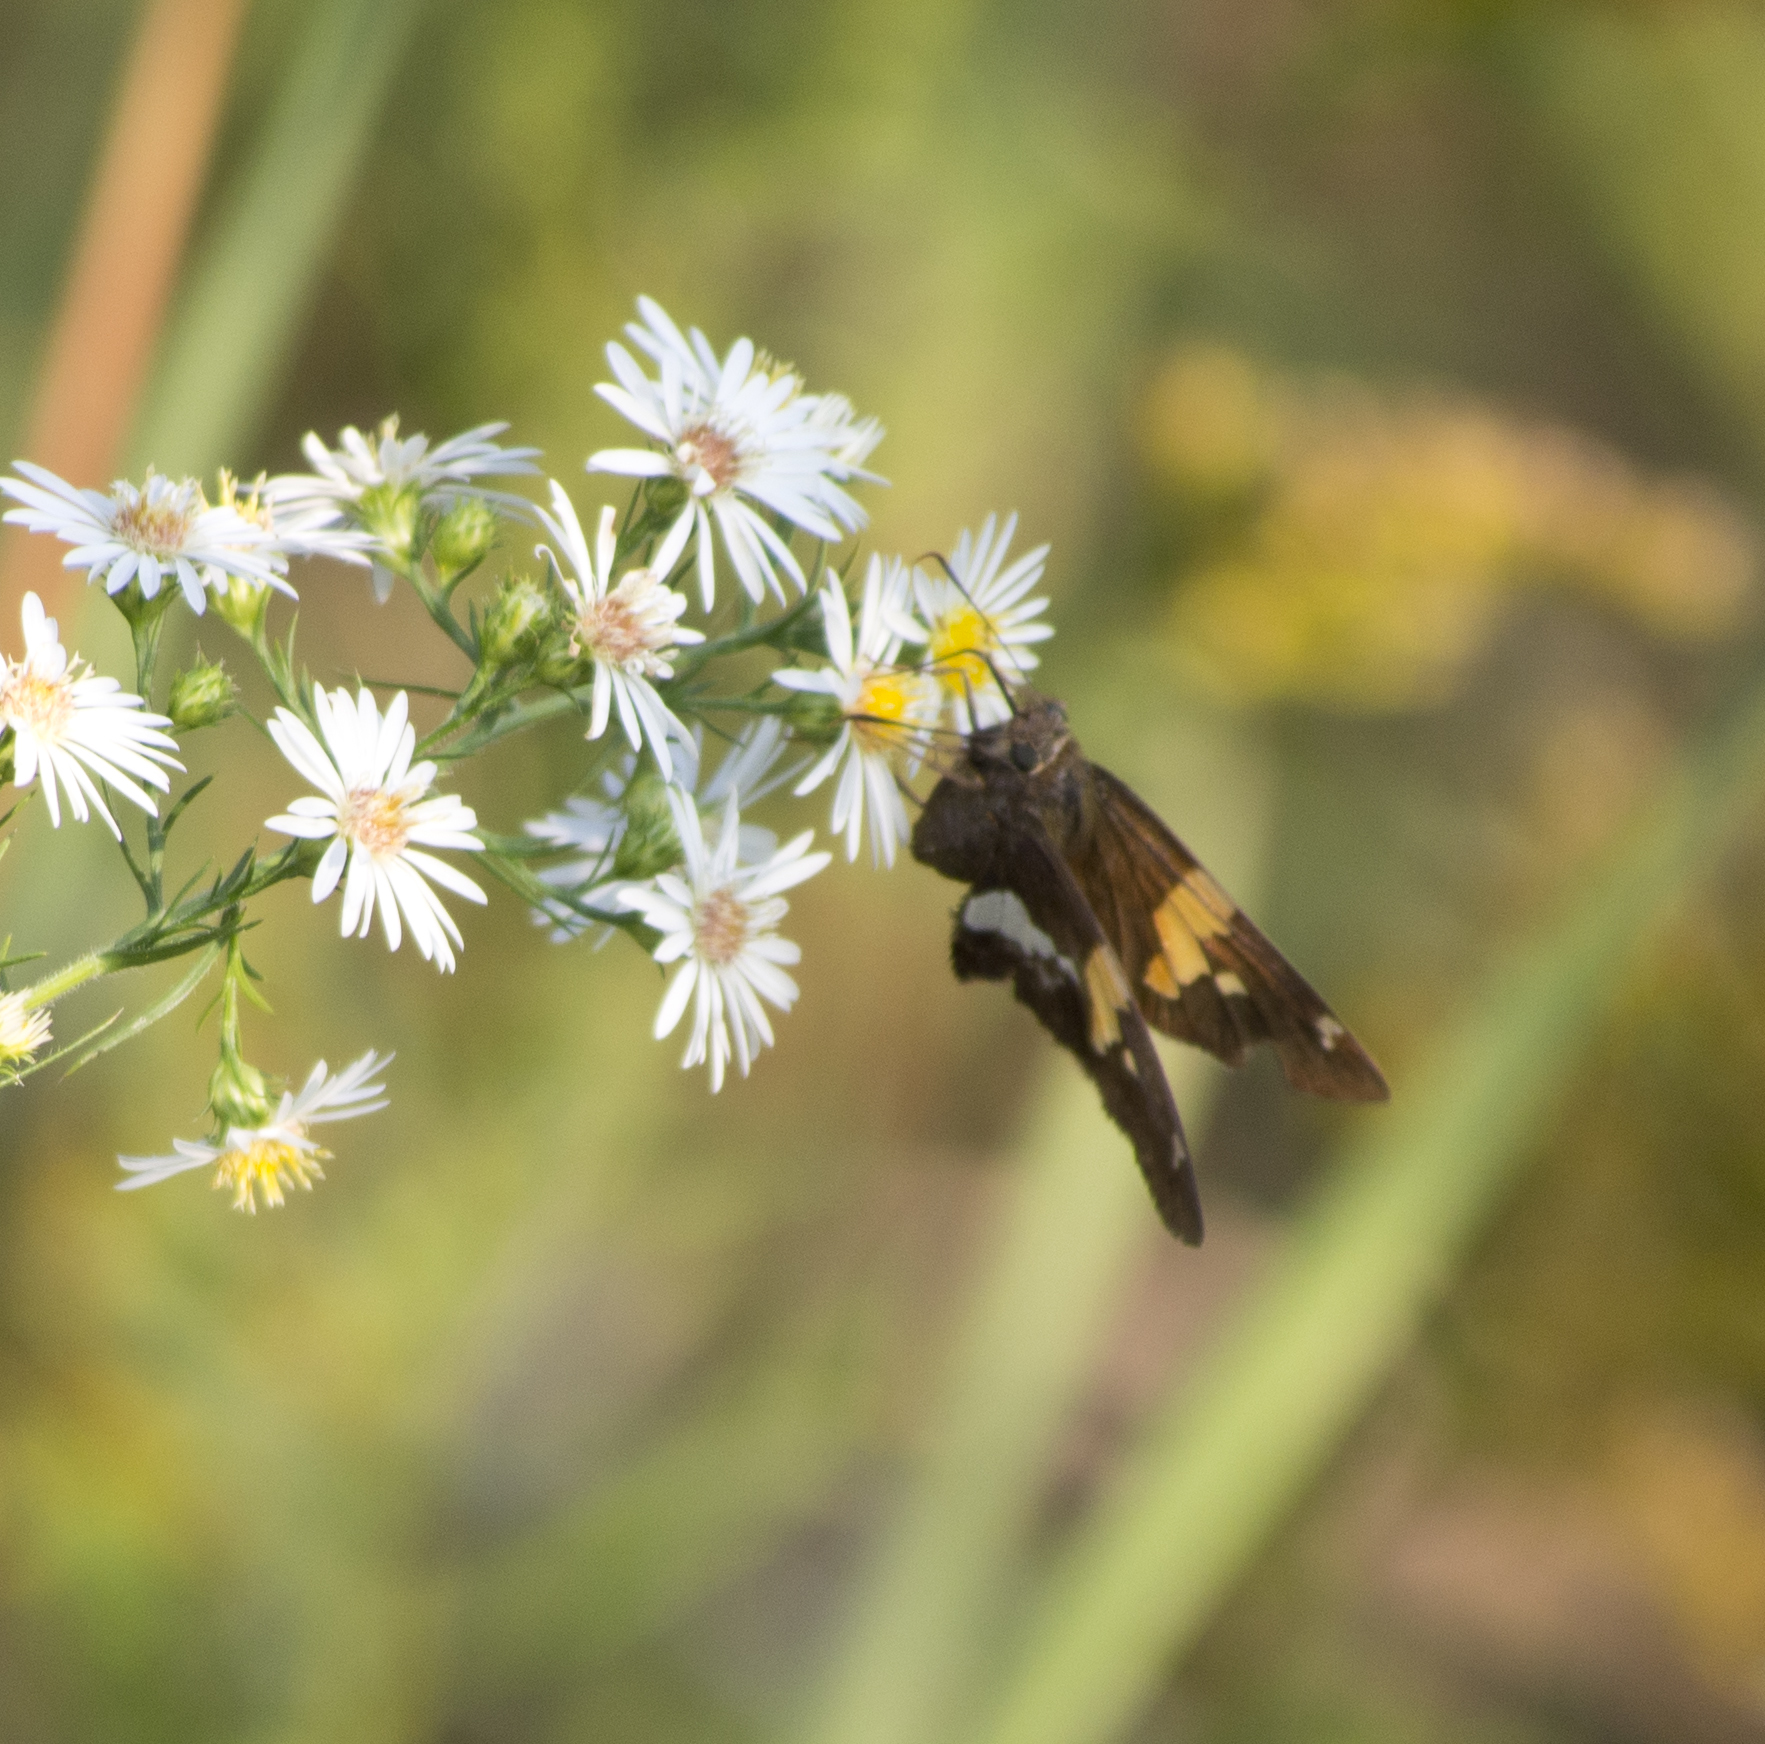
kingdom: Animalia
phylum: Arthropoda
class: Insecta
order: Lepidoptera
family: Hesperiidae
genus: Epargyreus
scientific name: Epargyreus clarus
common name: Silver-spotted skipper
